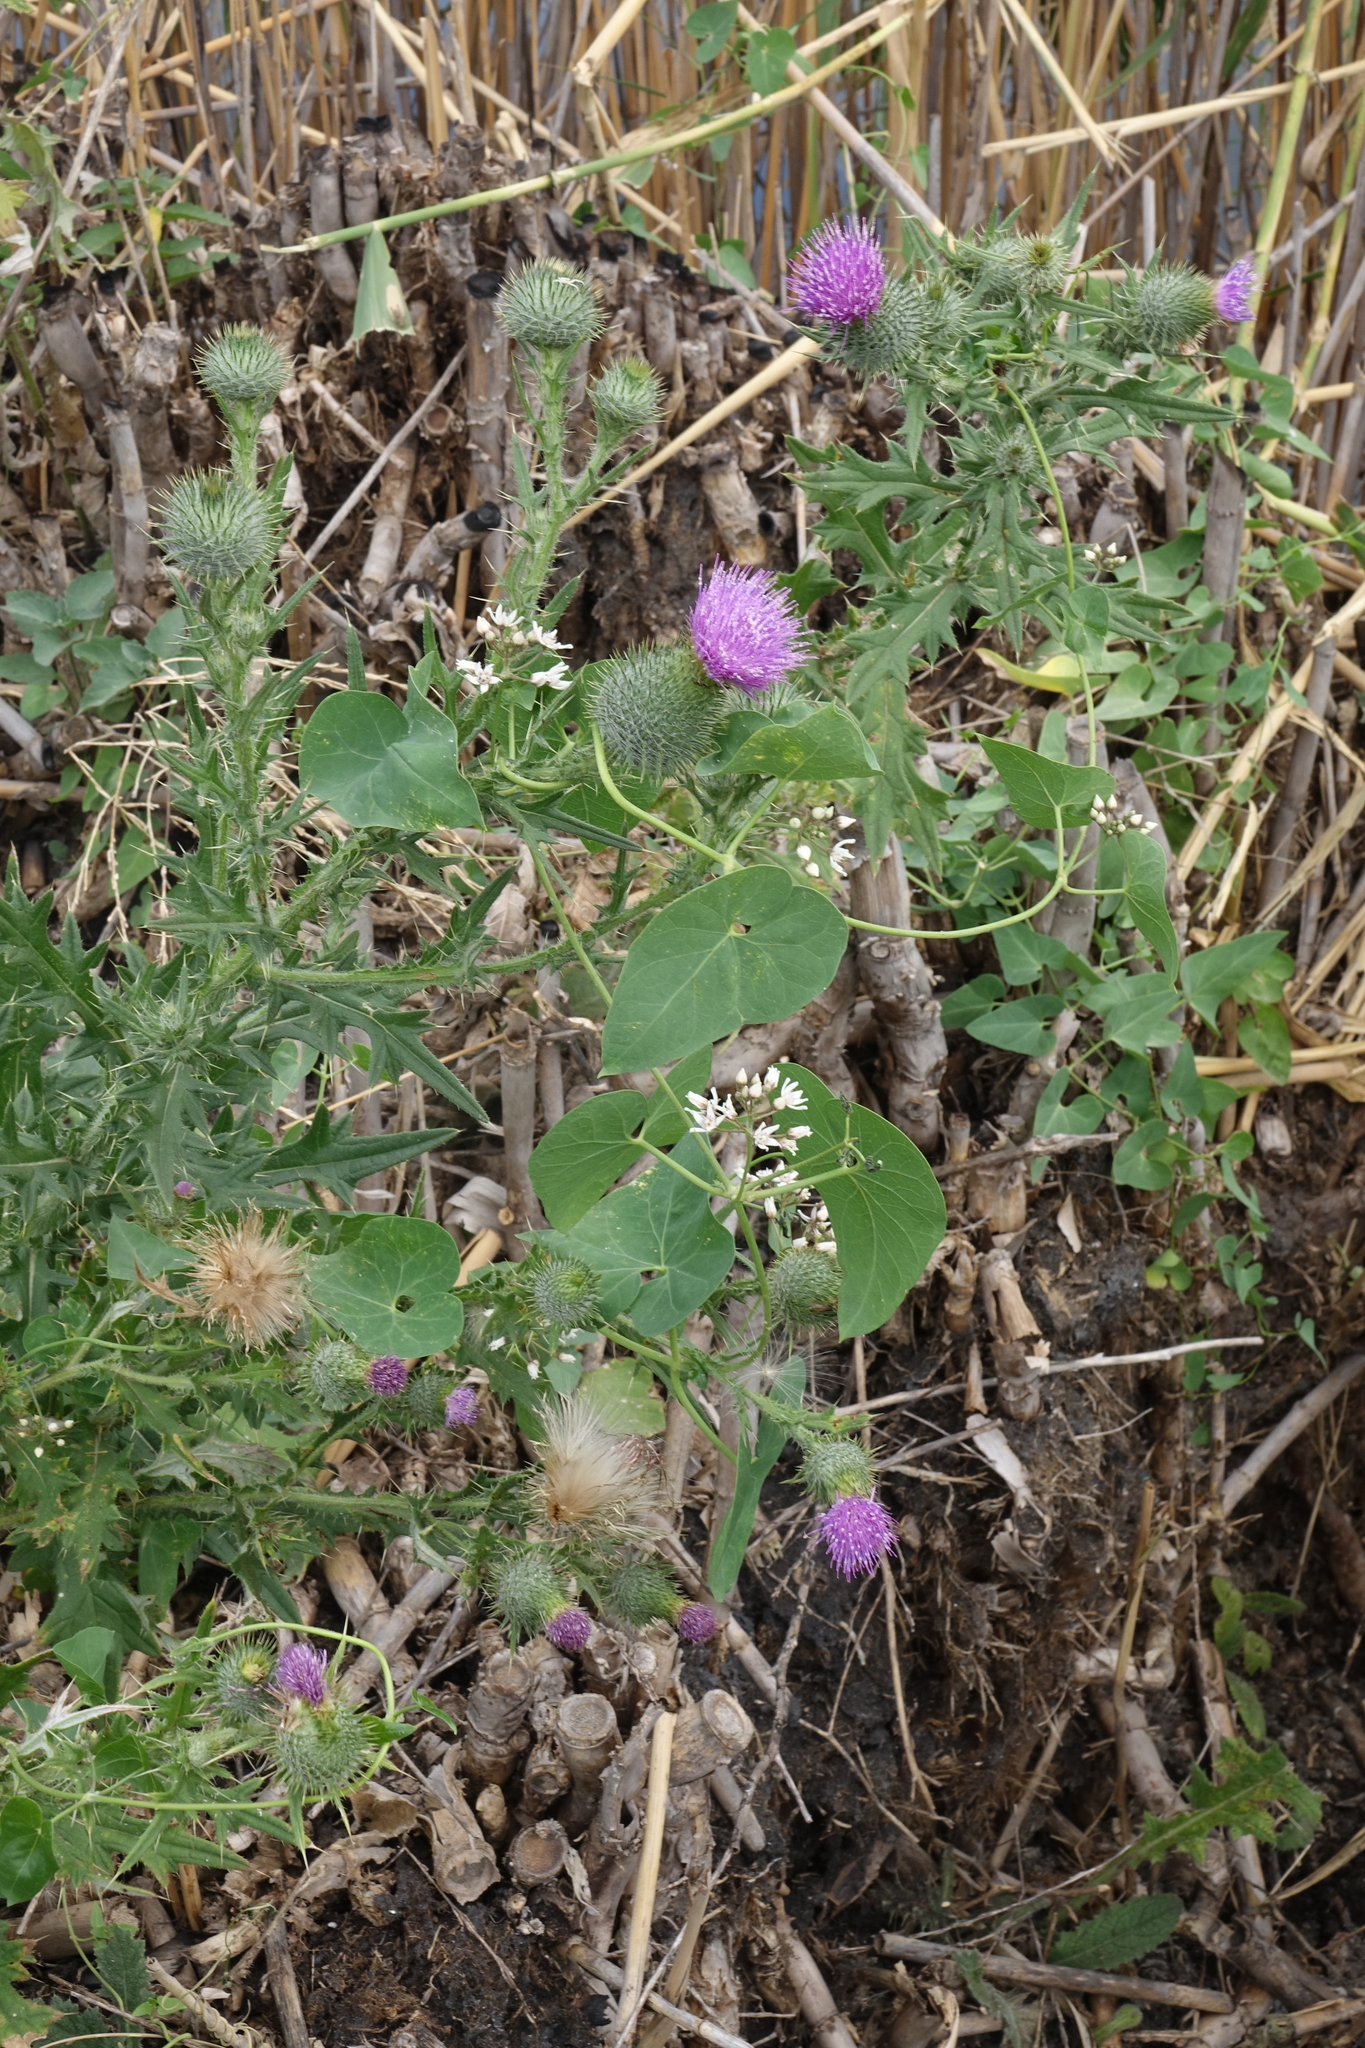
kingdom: Plantae
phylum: Tracheophyta
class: Magnoliopsida
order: Gentianales
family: Apocynaceae
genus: Cynanchum
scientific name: Cynanchum acutum
